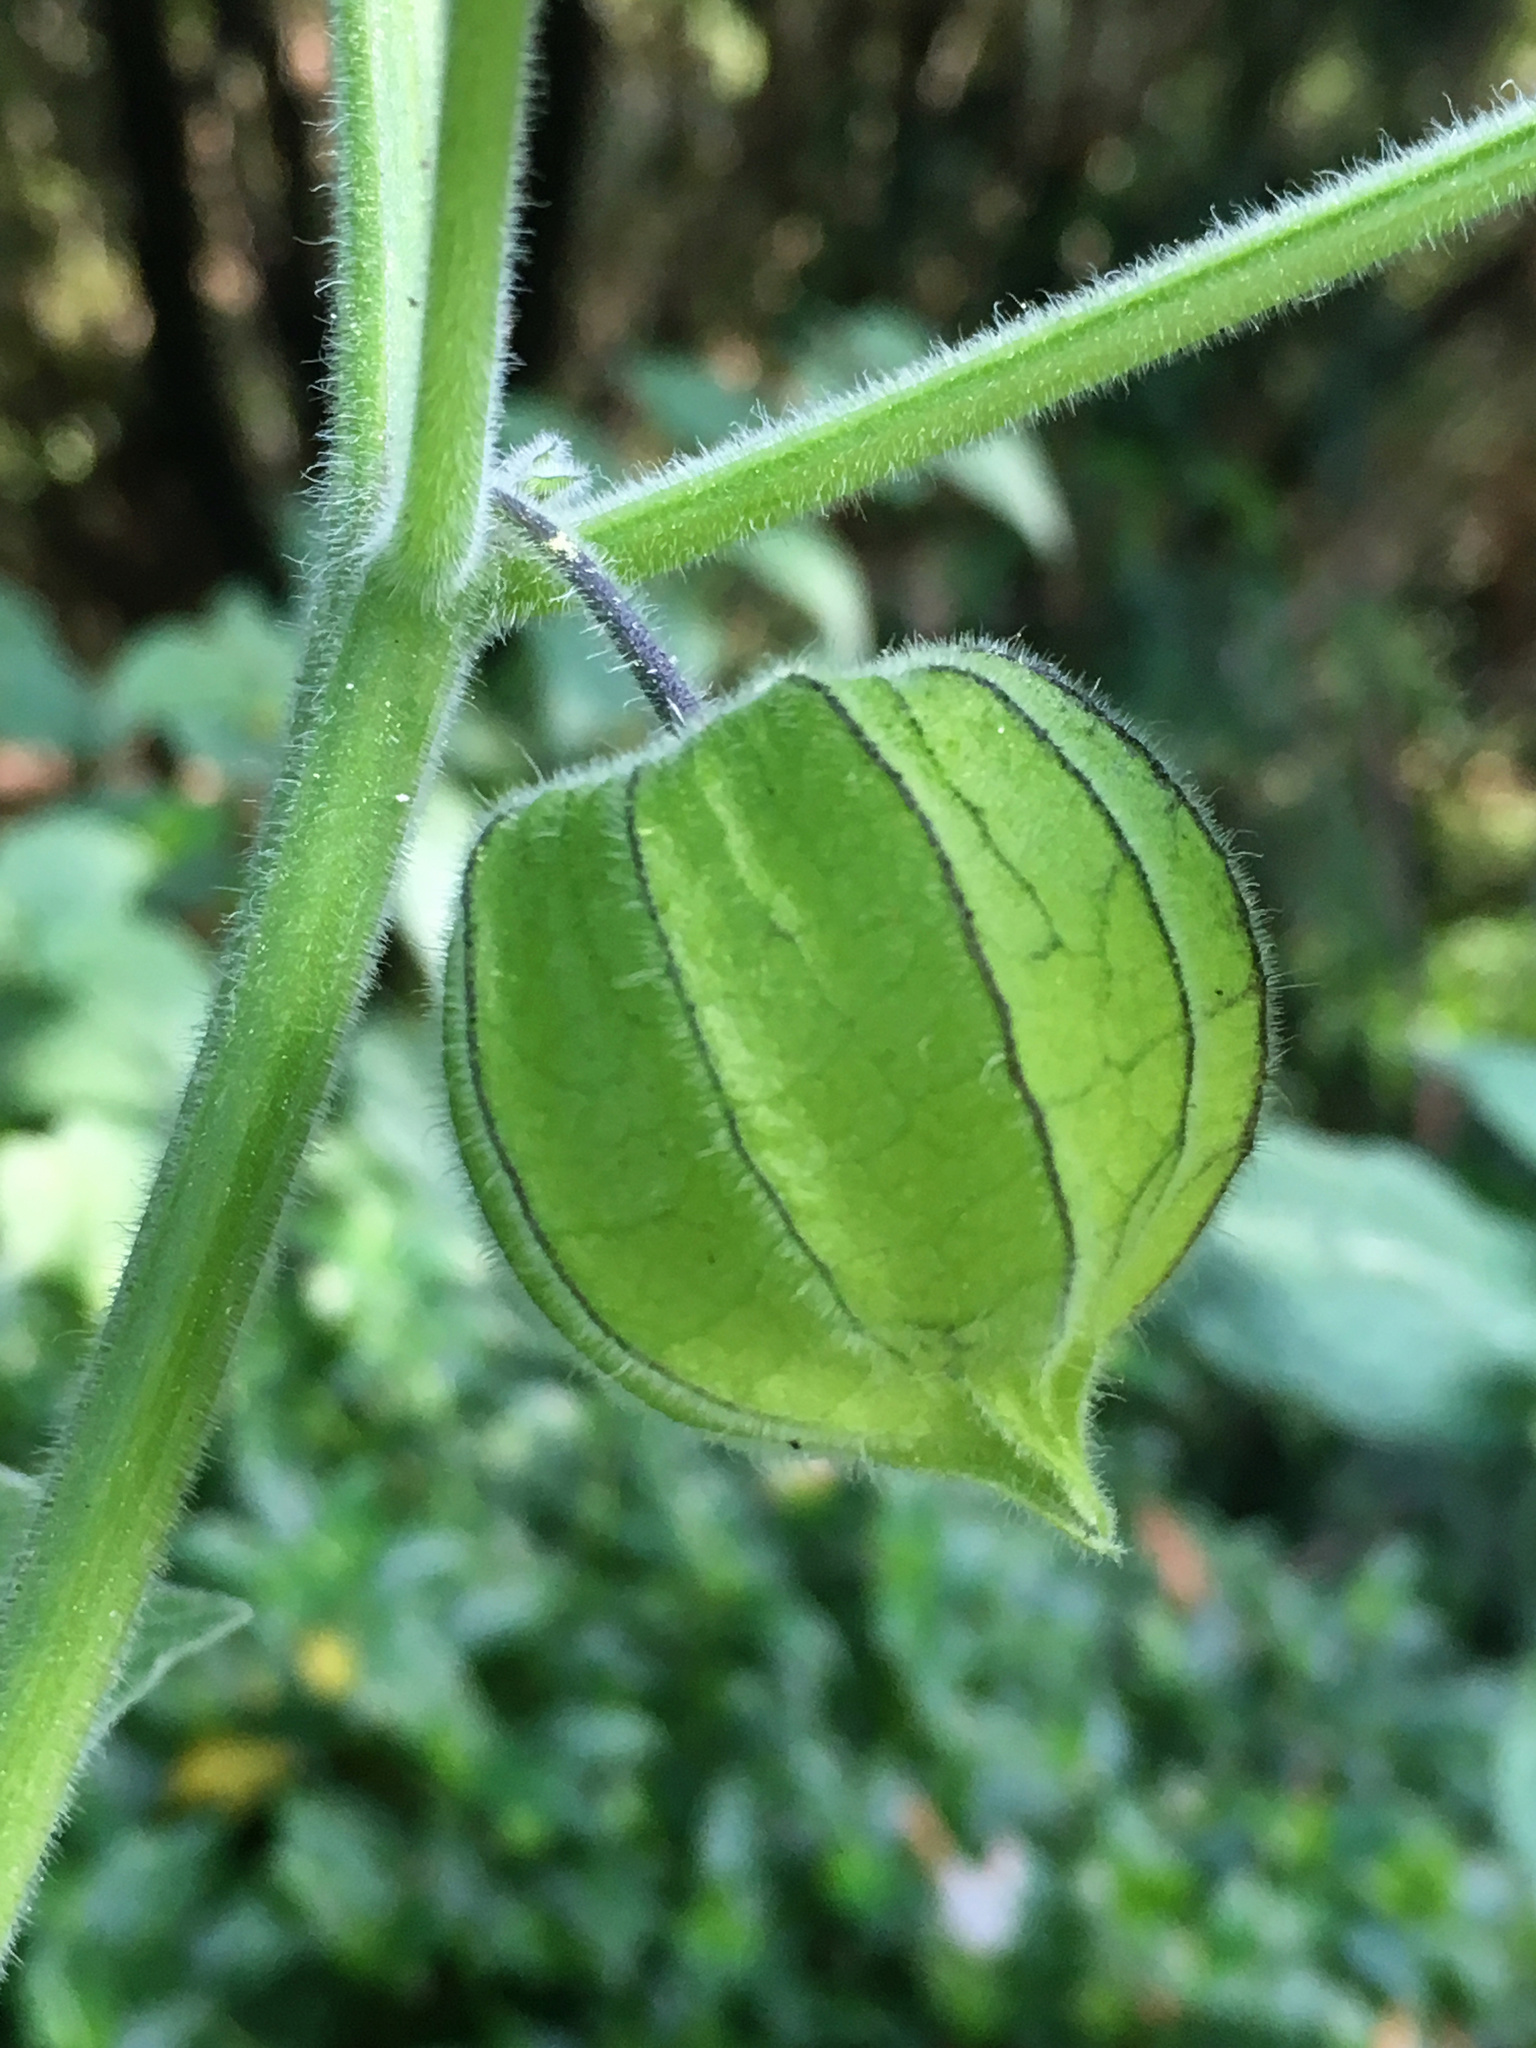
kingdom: Plantae
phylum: Tracheophyta
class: Magnoliopsida
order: Solanales
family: Solanaceae
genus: Physalis
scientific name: Physalis peruviana
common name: Cape-gooseberry
